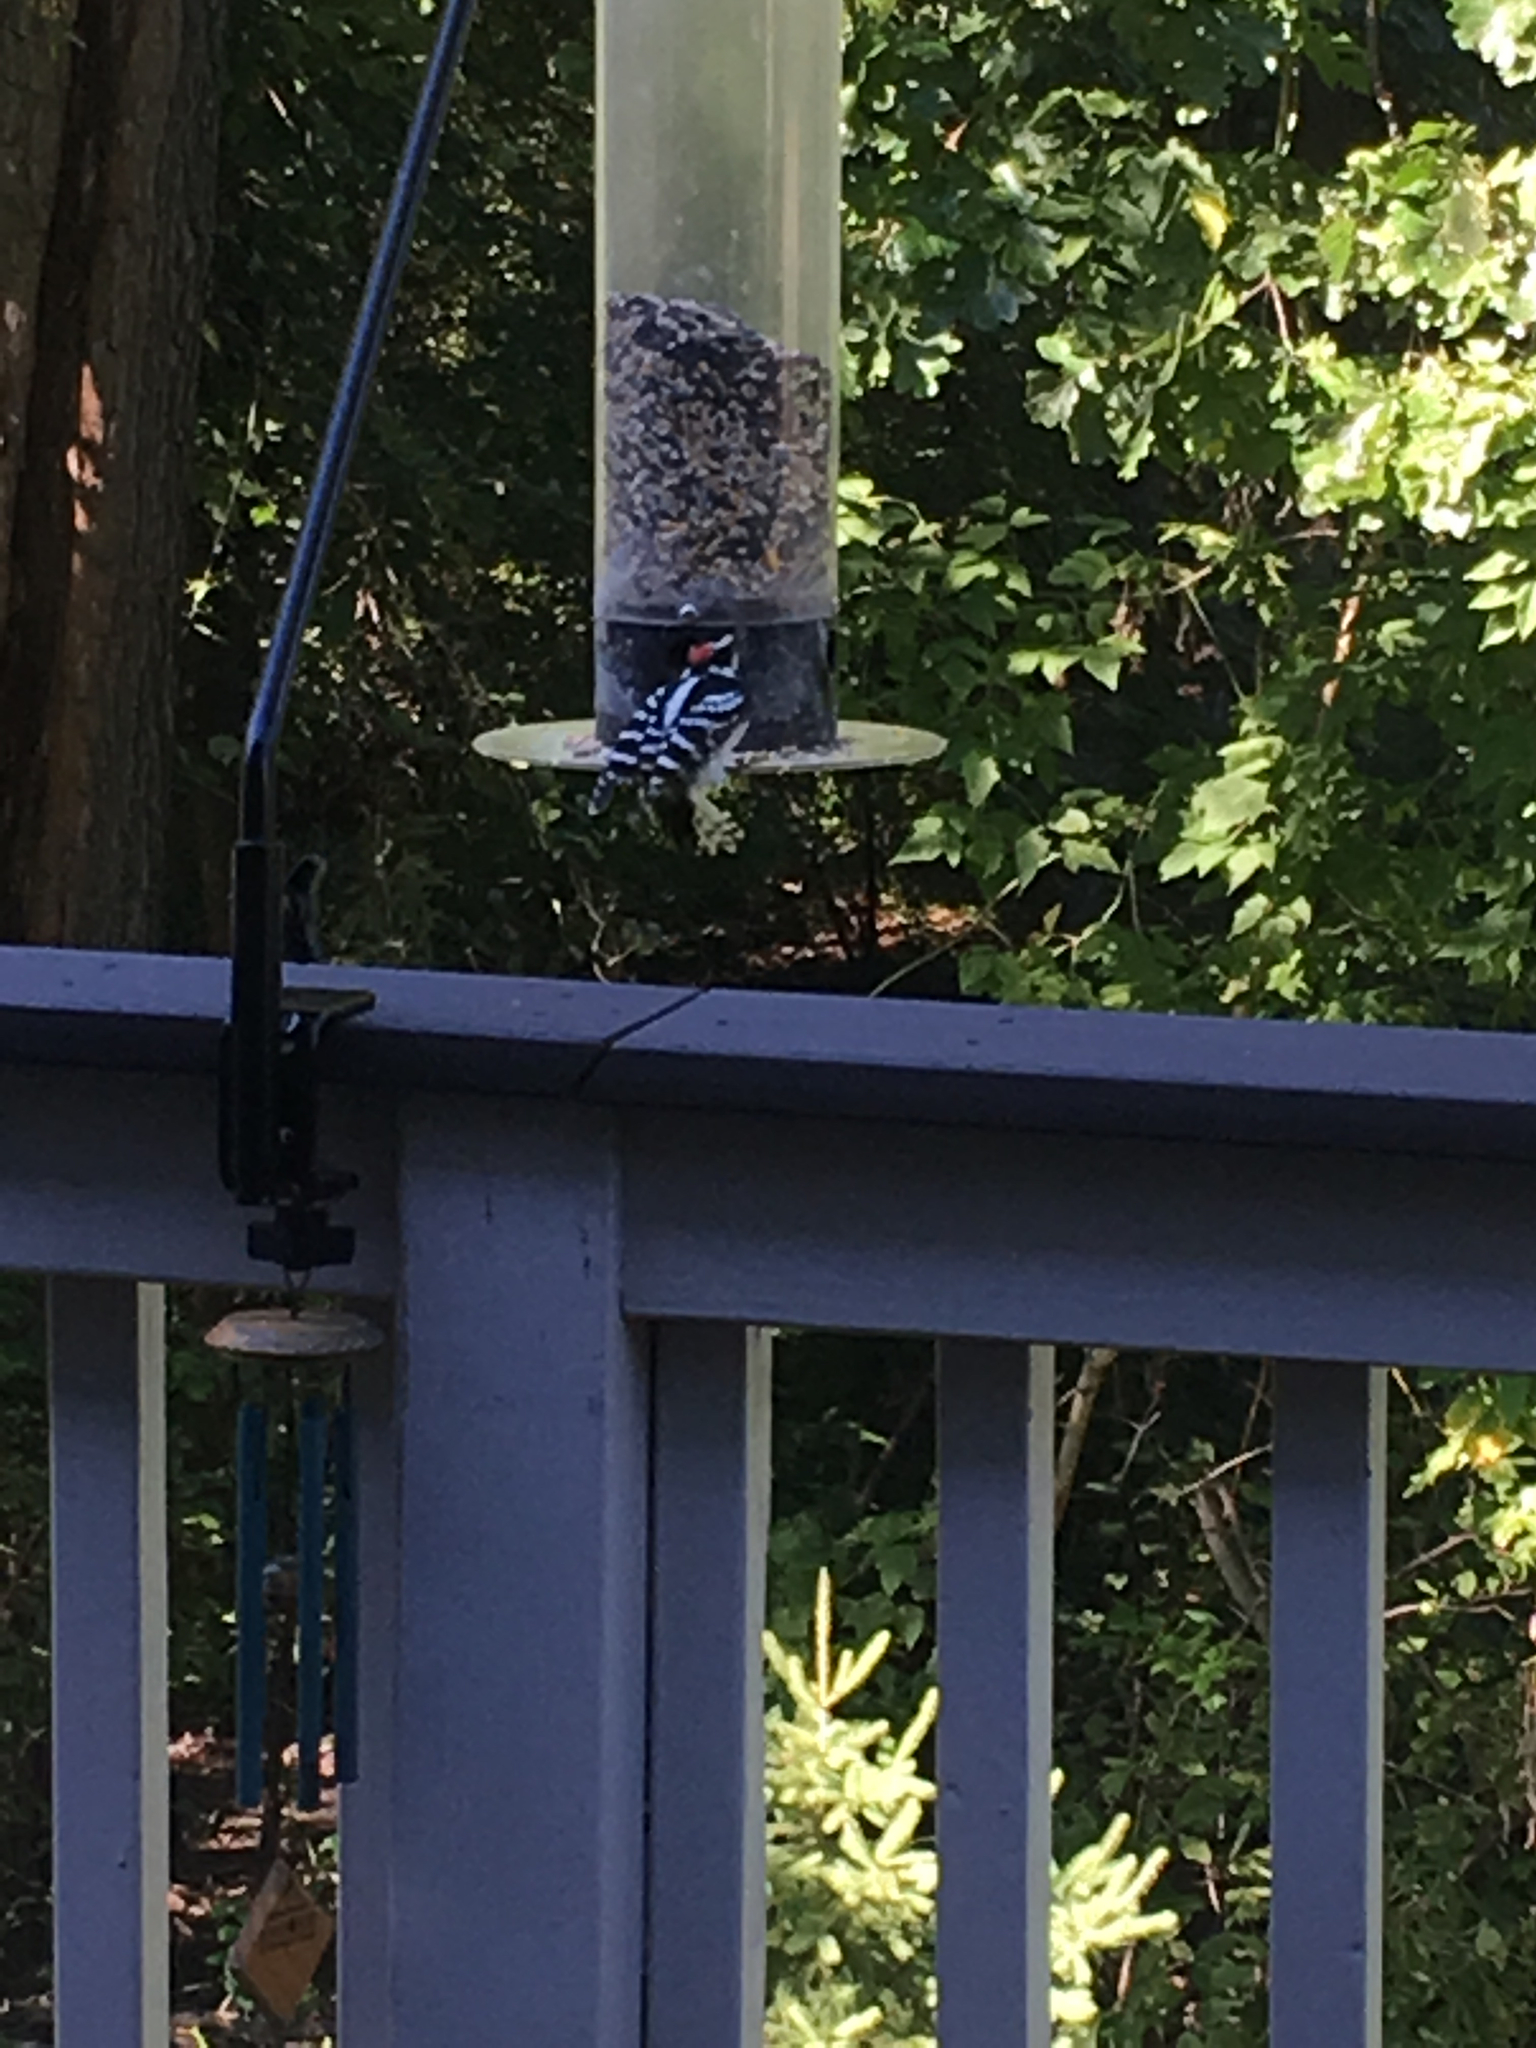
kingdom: Animalia
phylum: Chordata
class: Aves
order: Piciformes
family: Picidae
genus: Dryobates
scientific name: Dryobates pubescens
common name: Downy woodpecker
